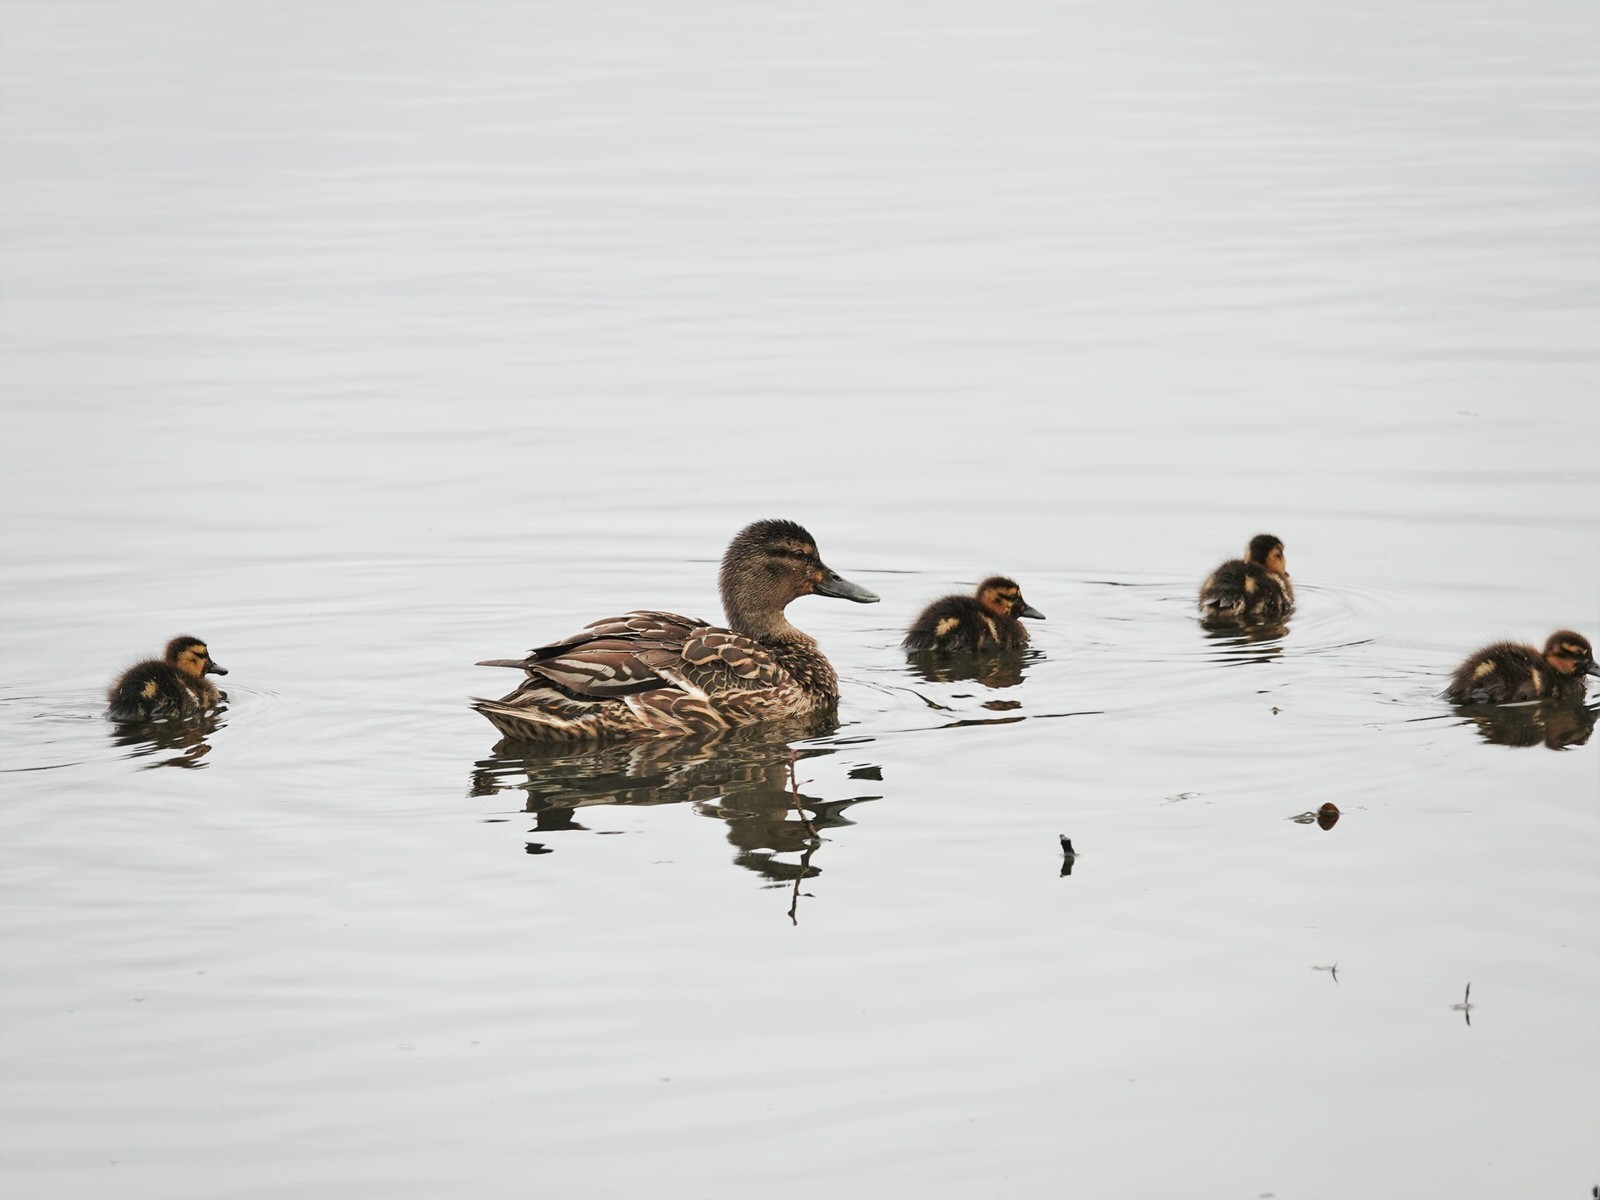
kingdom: Animalia
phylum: Chordata
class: Aves
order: Anseriformes
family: Anatidae
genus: Anas
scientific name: Anas
